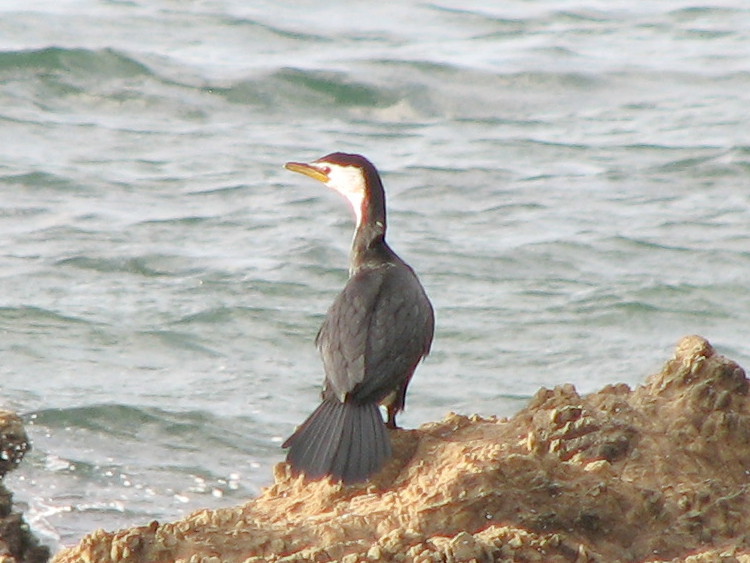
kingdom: Animalia
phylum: Chordata
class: Aves
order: Suliformes
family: Phalacrocoracidae
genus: Microcarbo
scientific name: Microcarbo melanoleucos
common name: Little pied cormorant
